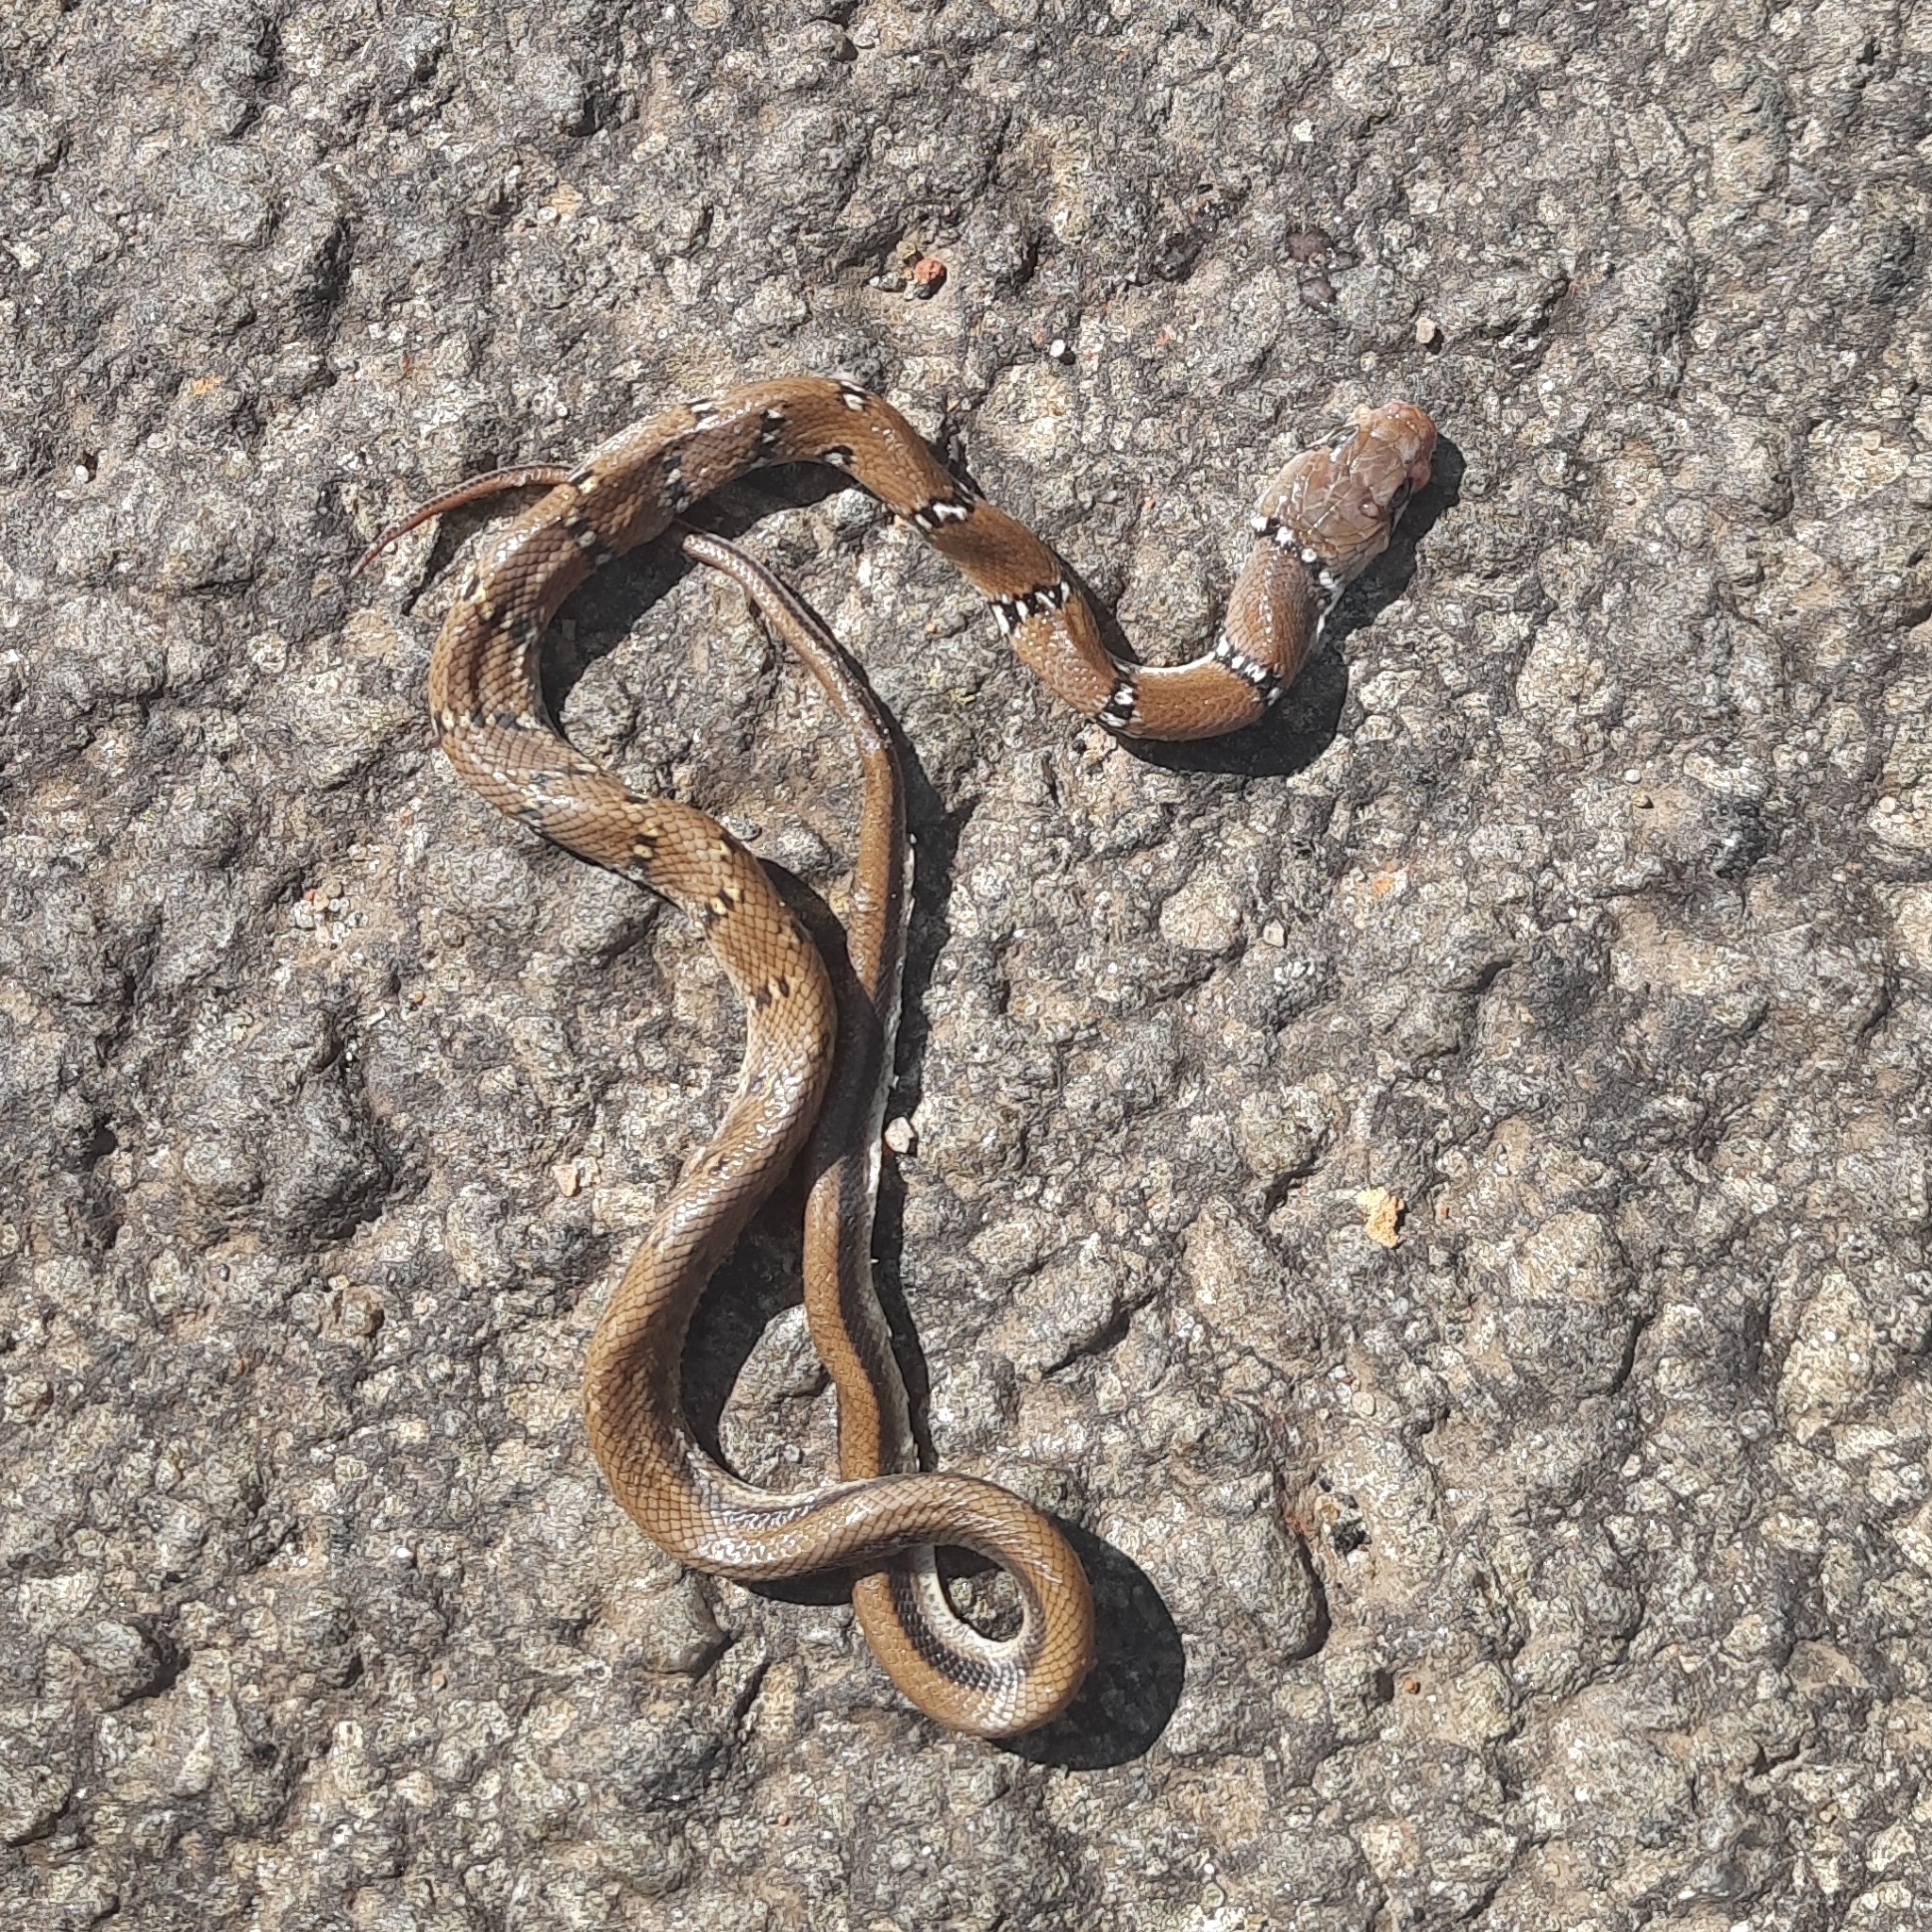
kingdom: Animalia
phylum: Chordata
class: Squamata
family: Colubridae
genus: Coelognathus
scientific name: Coelognathus helena
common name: Trinket snake
